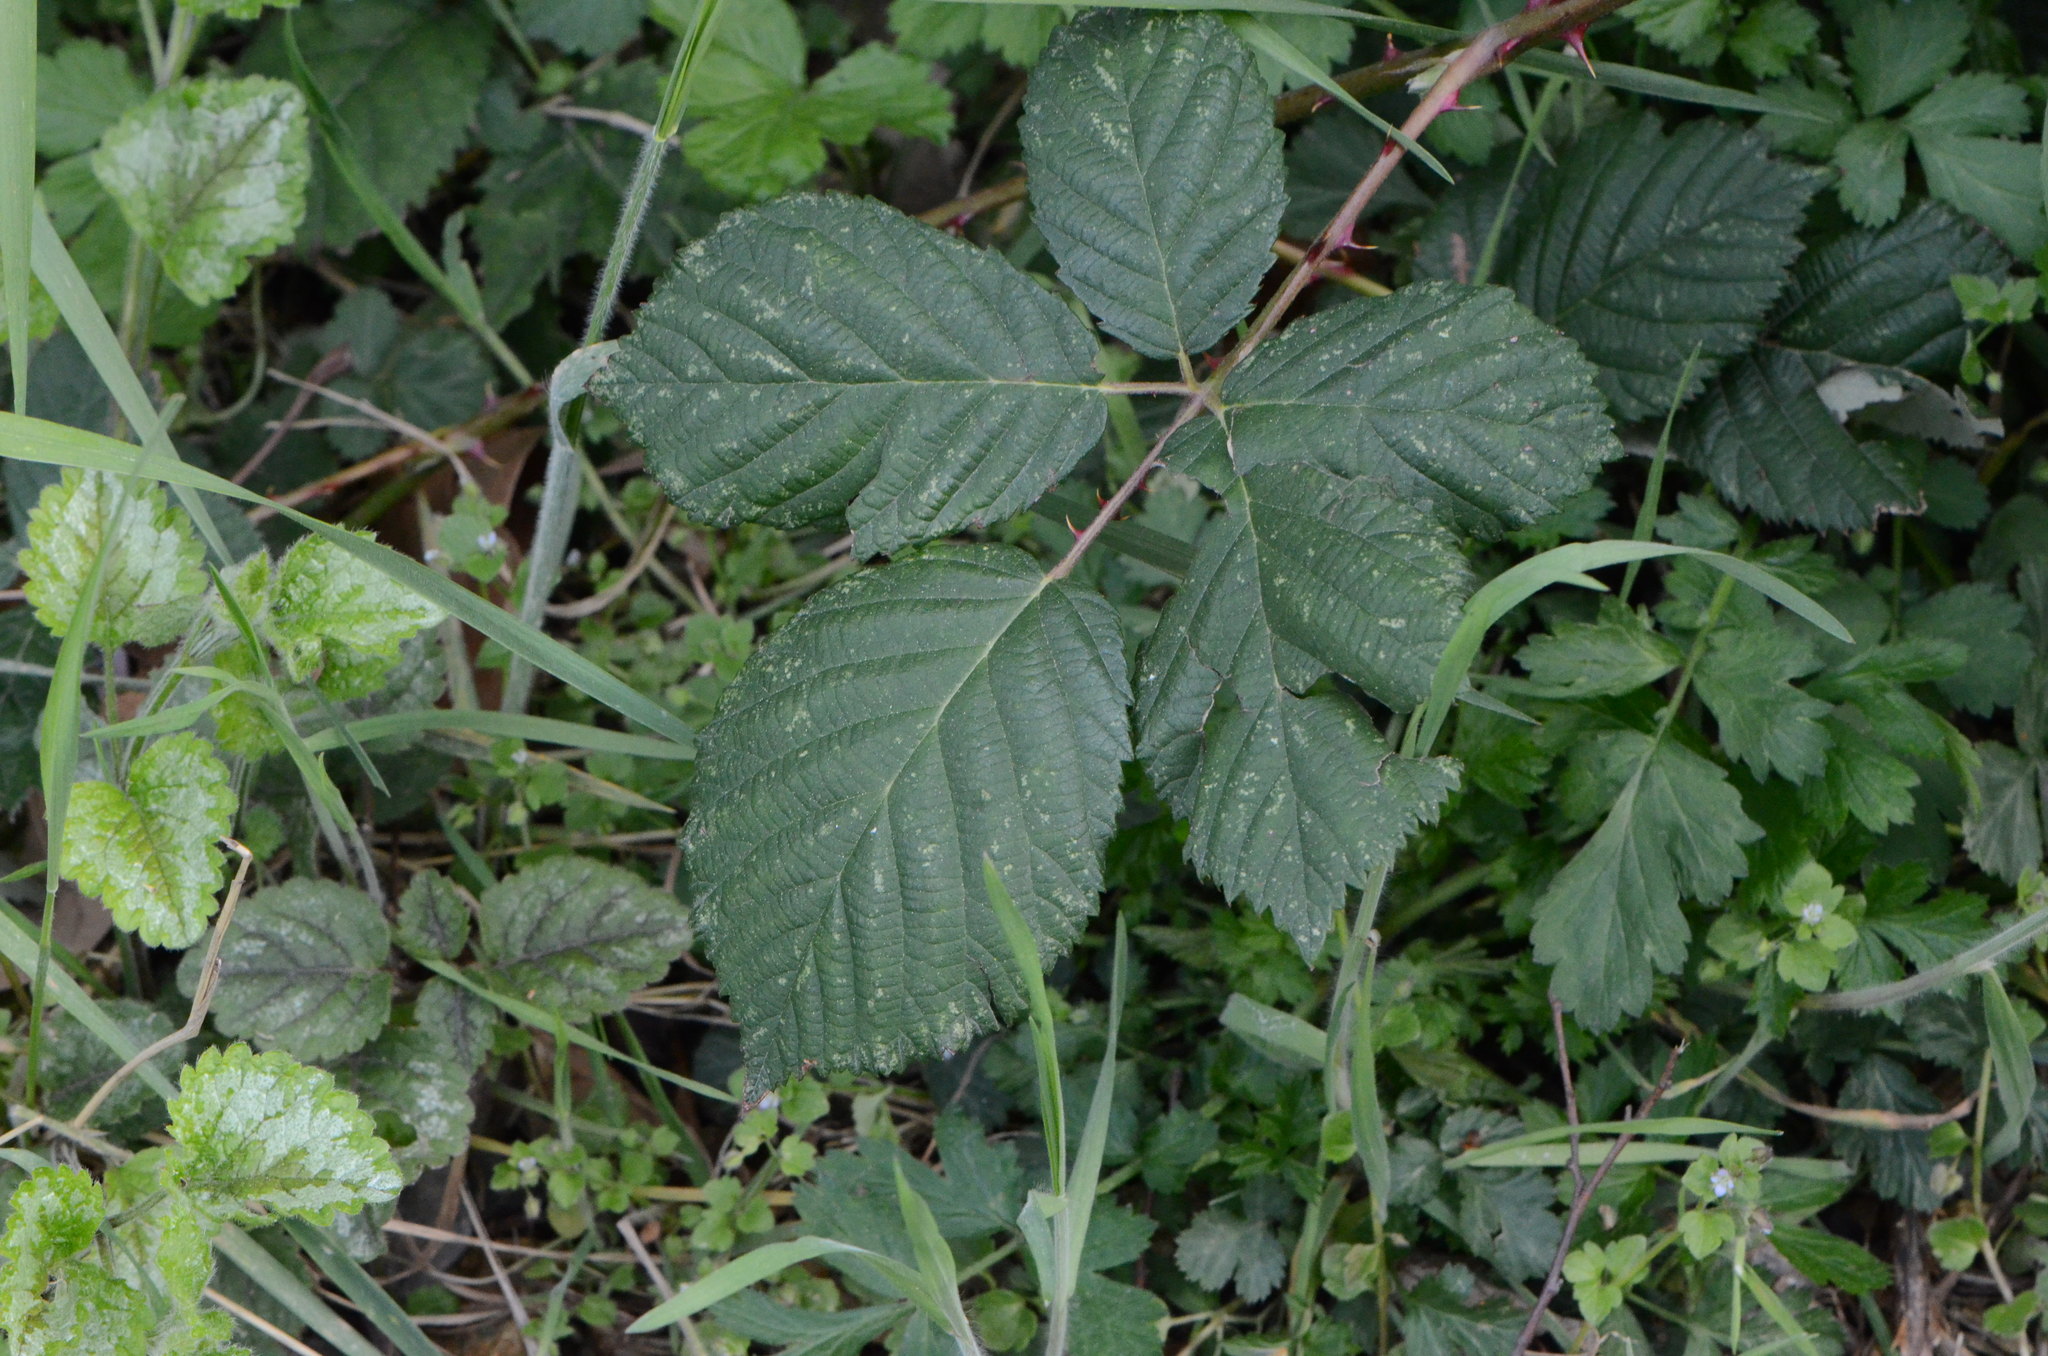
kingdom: Plantae
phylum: Tracheophyta
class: Magnoliopsida
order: Rosales
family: Rosaceae
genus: Rubus
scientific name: Rubus
